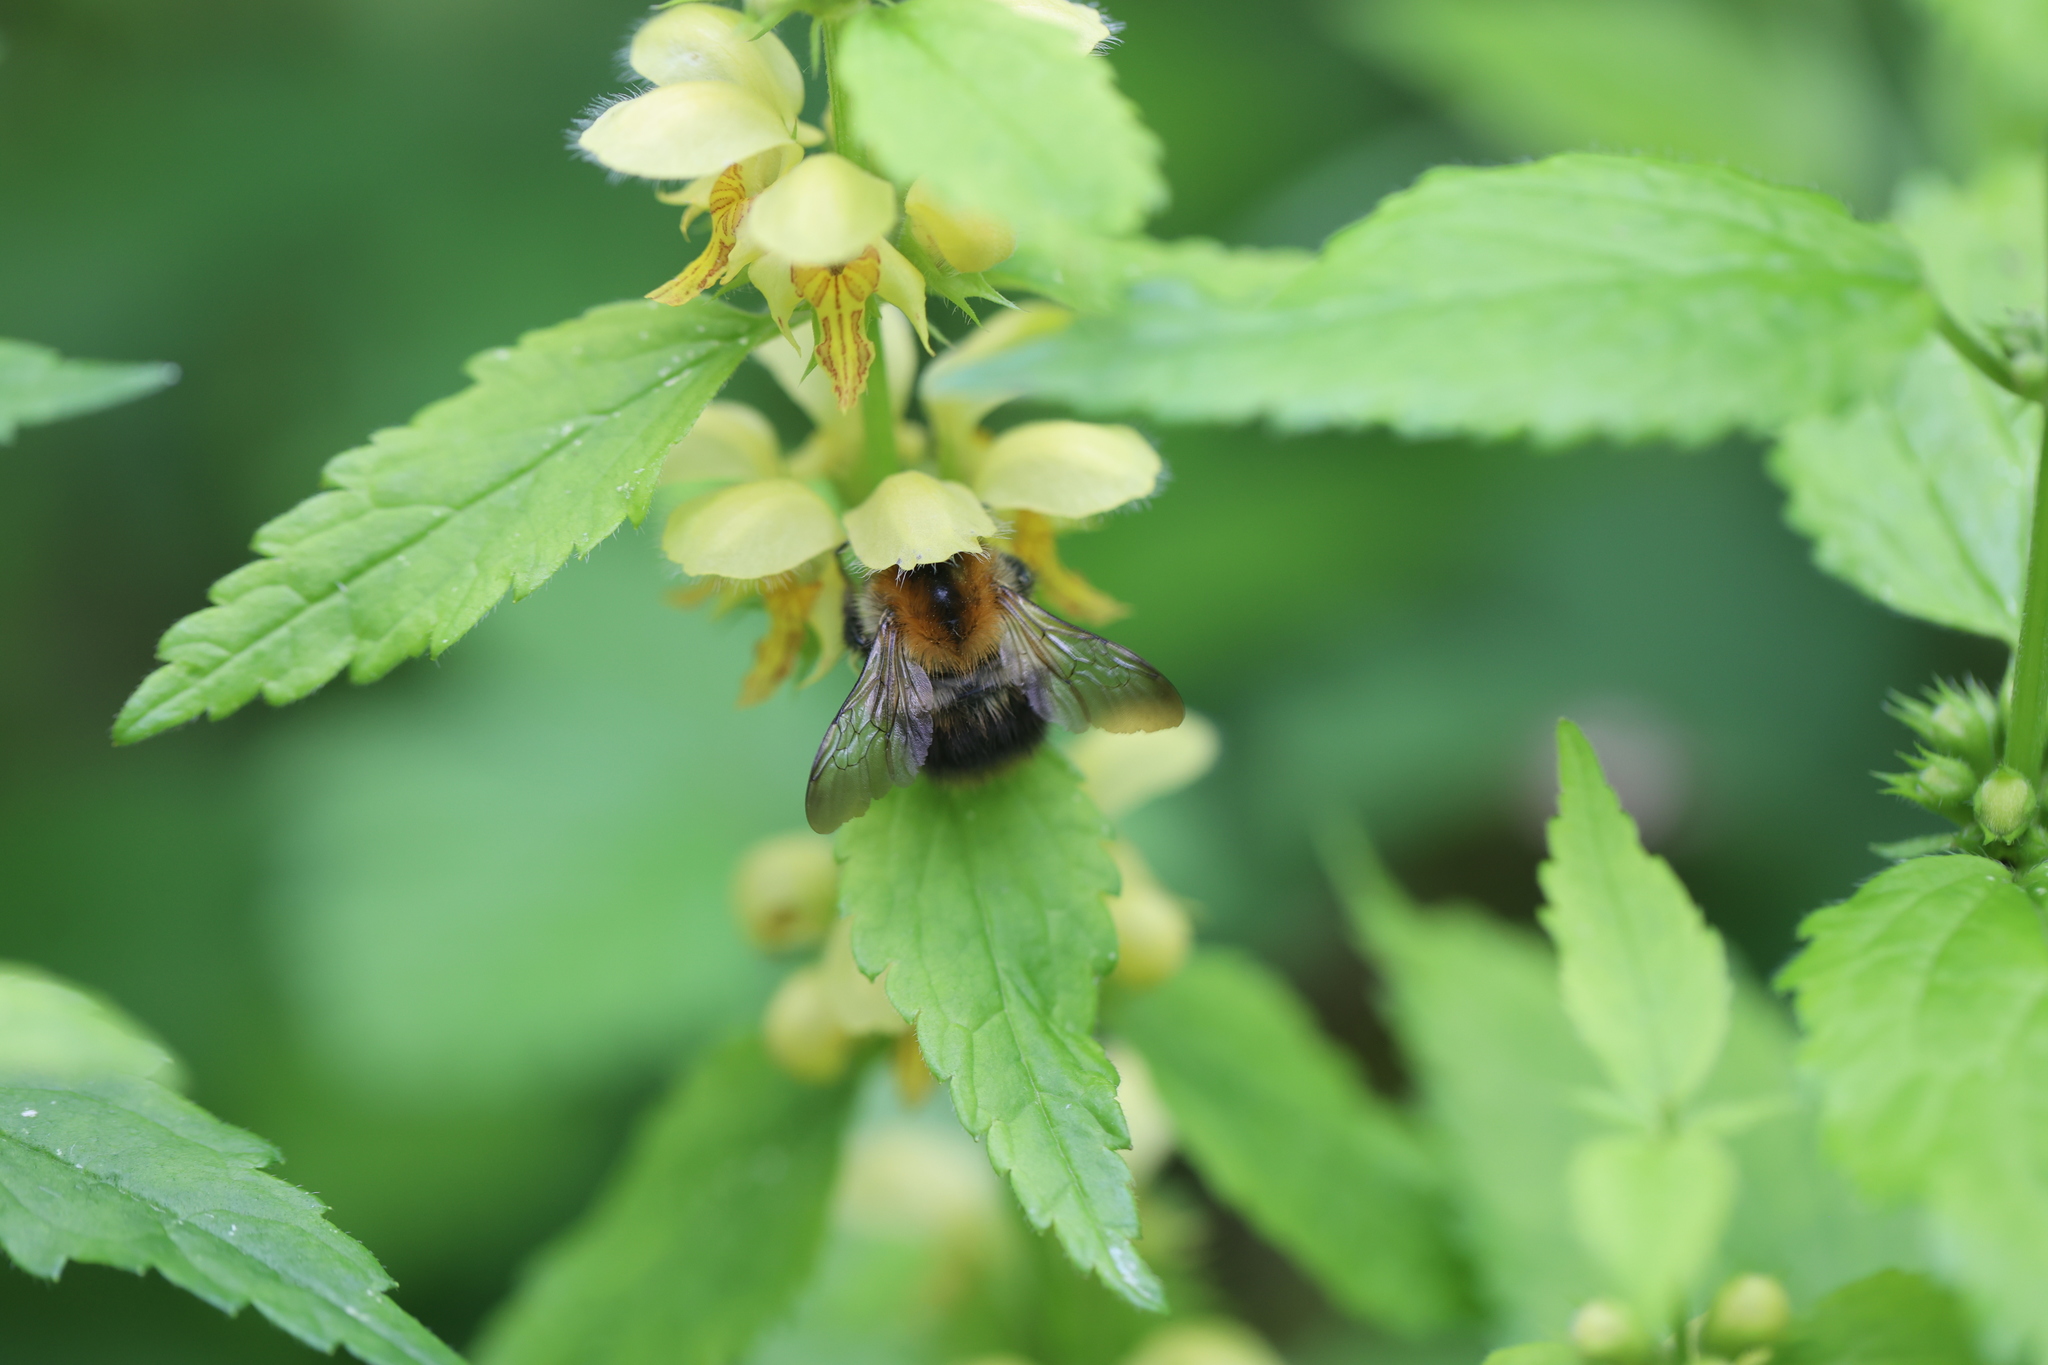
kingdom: Animalia
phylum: Arthropoda
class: Insecta
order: Hymenoptera
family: Apidae
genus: Bombus
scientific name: Bombus pascuorum
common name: Common carder bee
